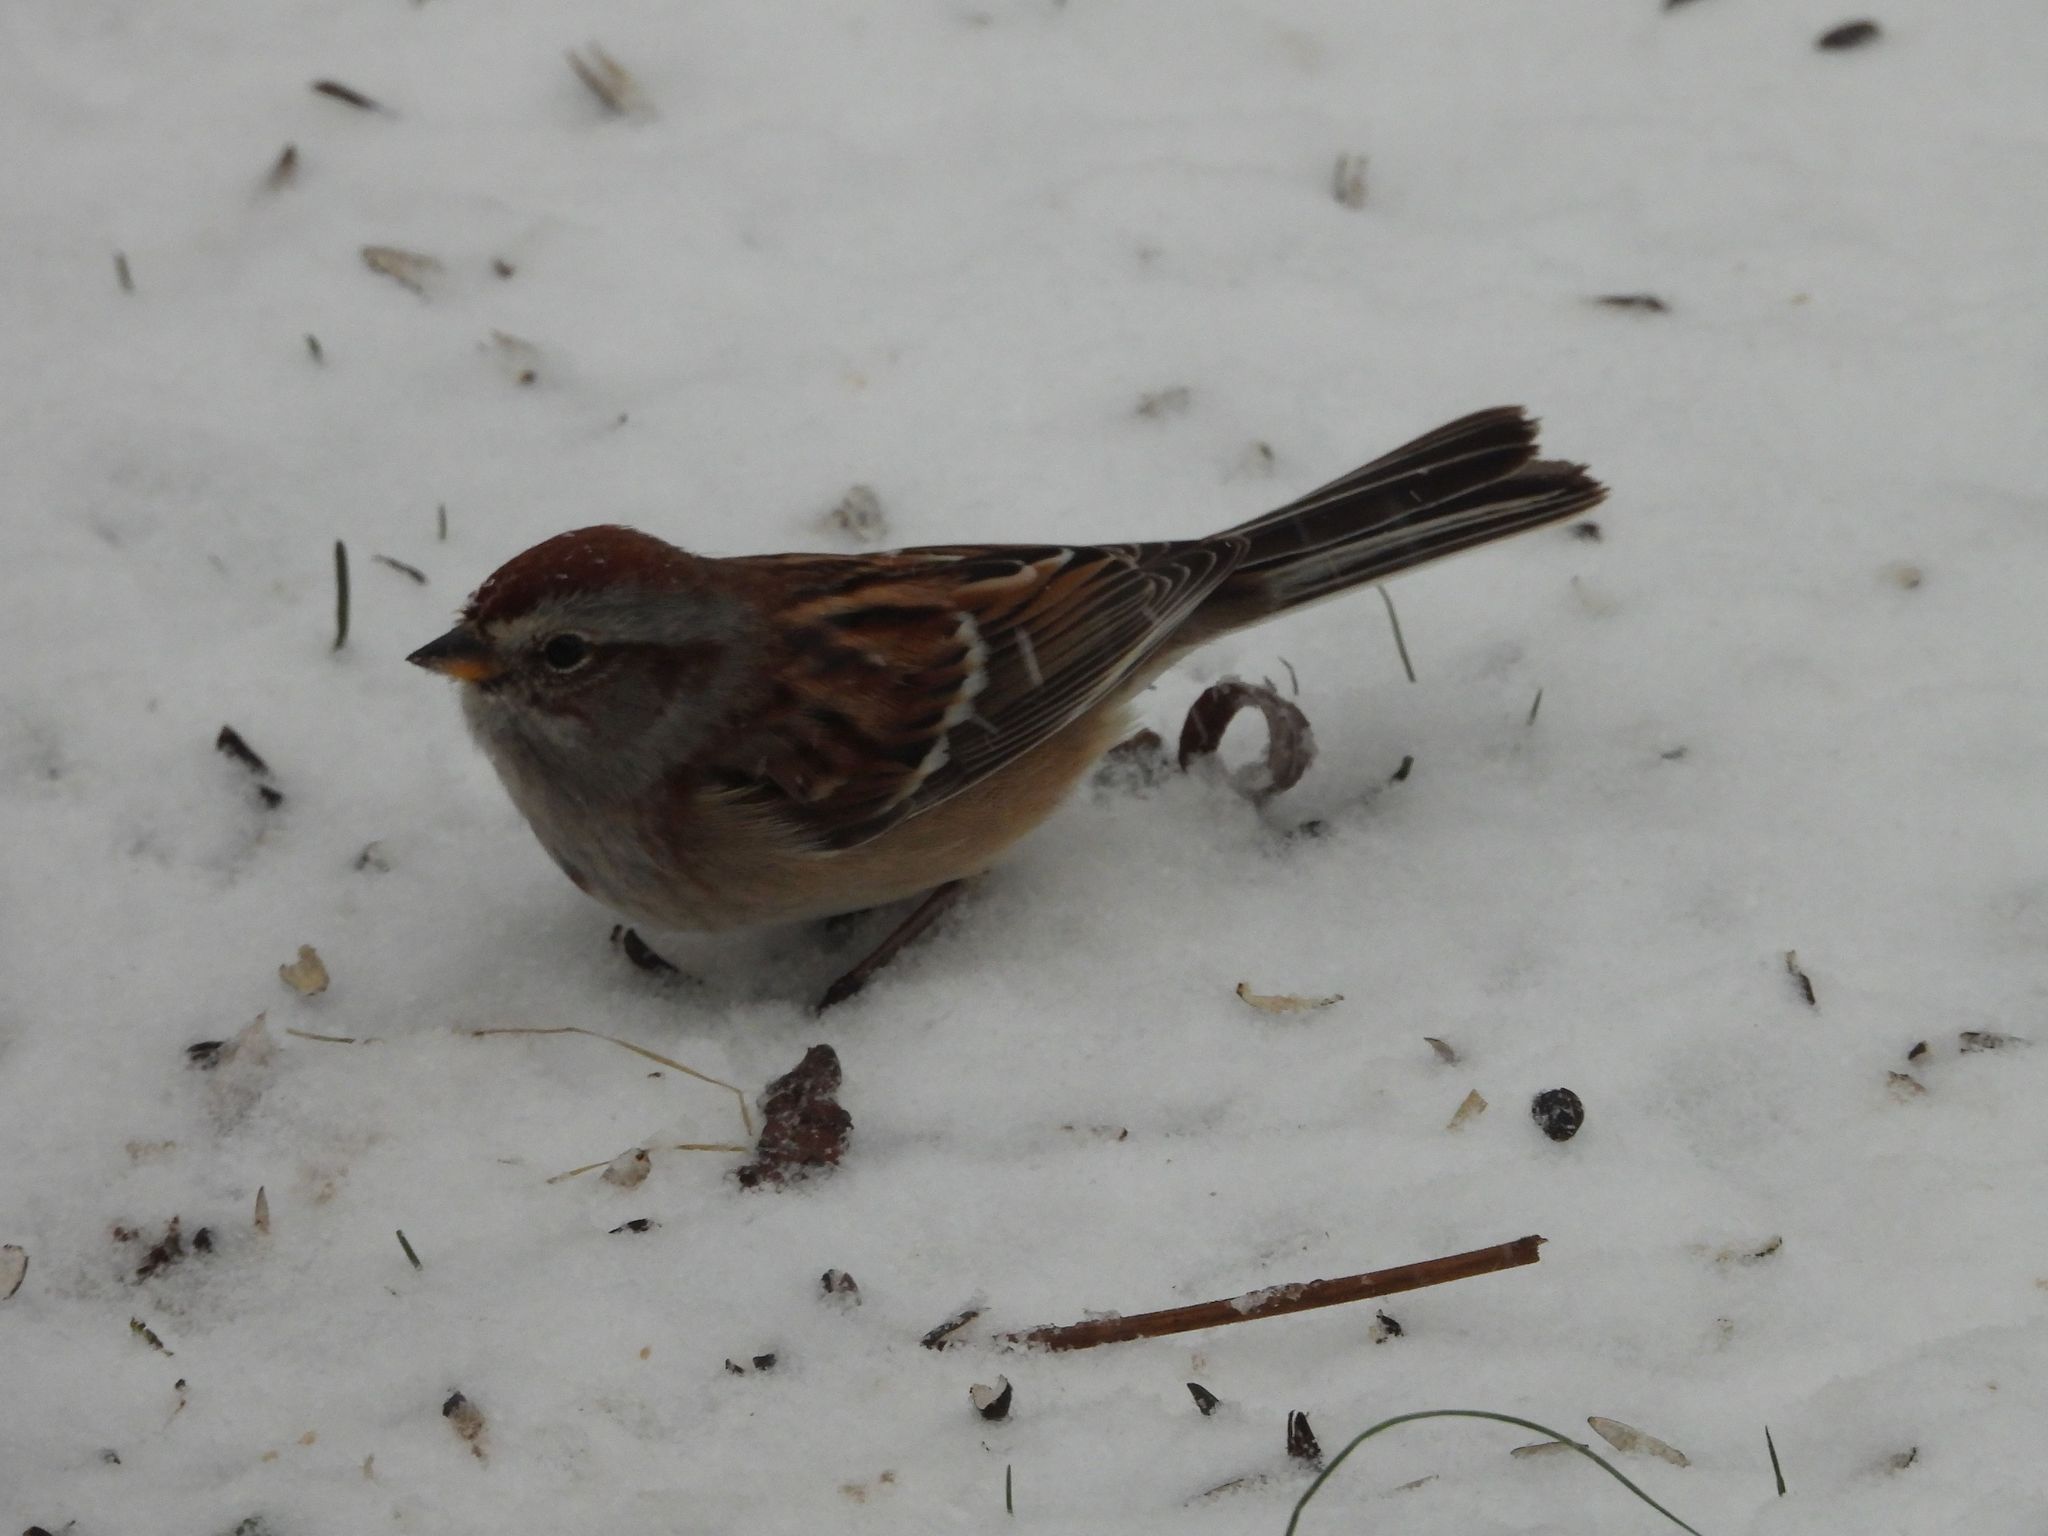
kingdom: Animalia
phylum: Chordata
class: Aves
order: Passeriformes
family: Passerellidae
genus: Spizelloides
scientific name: Spizelloides arborea
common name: American tree sparrow
